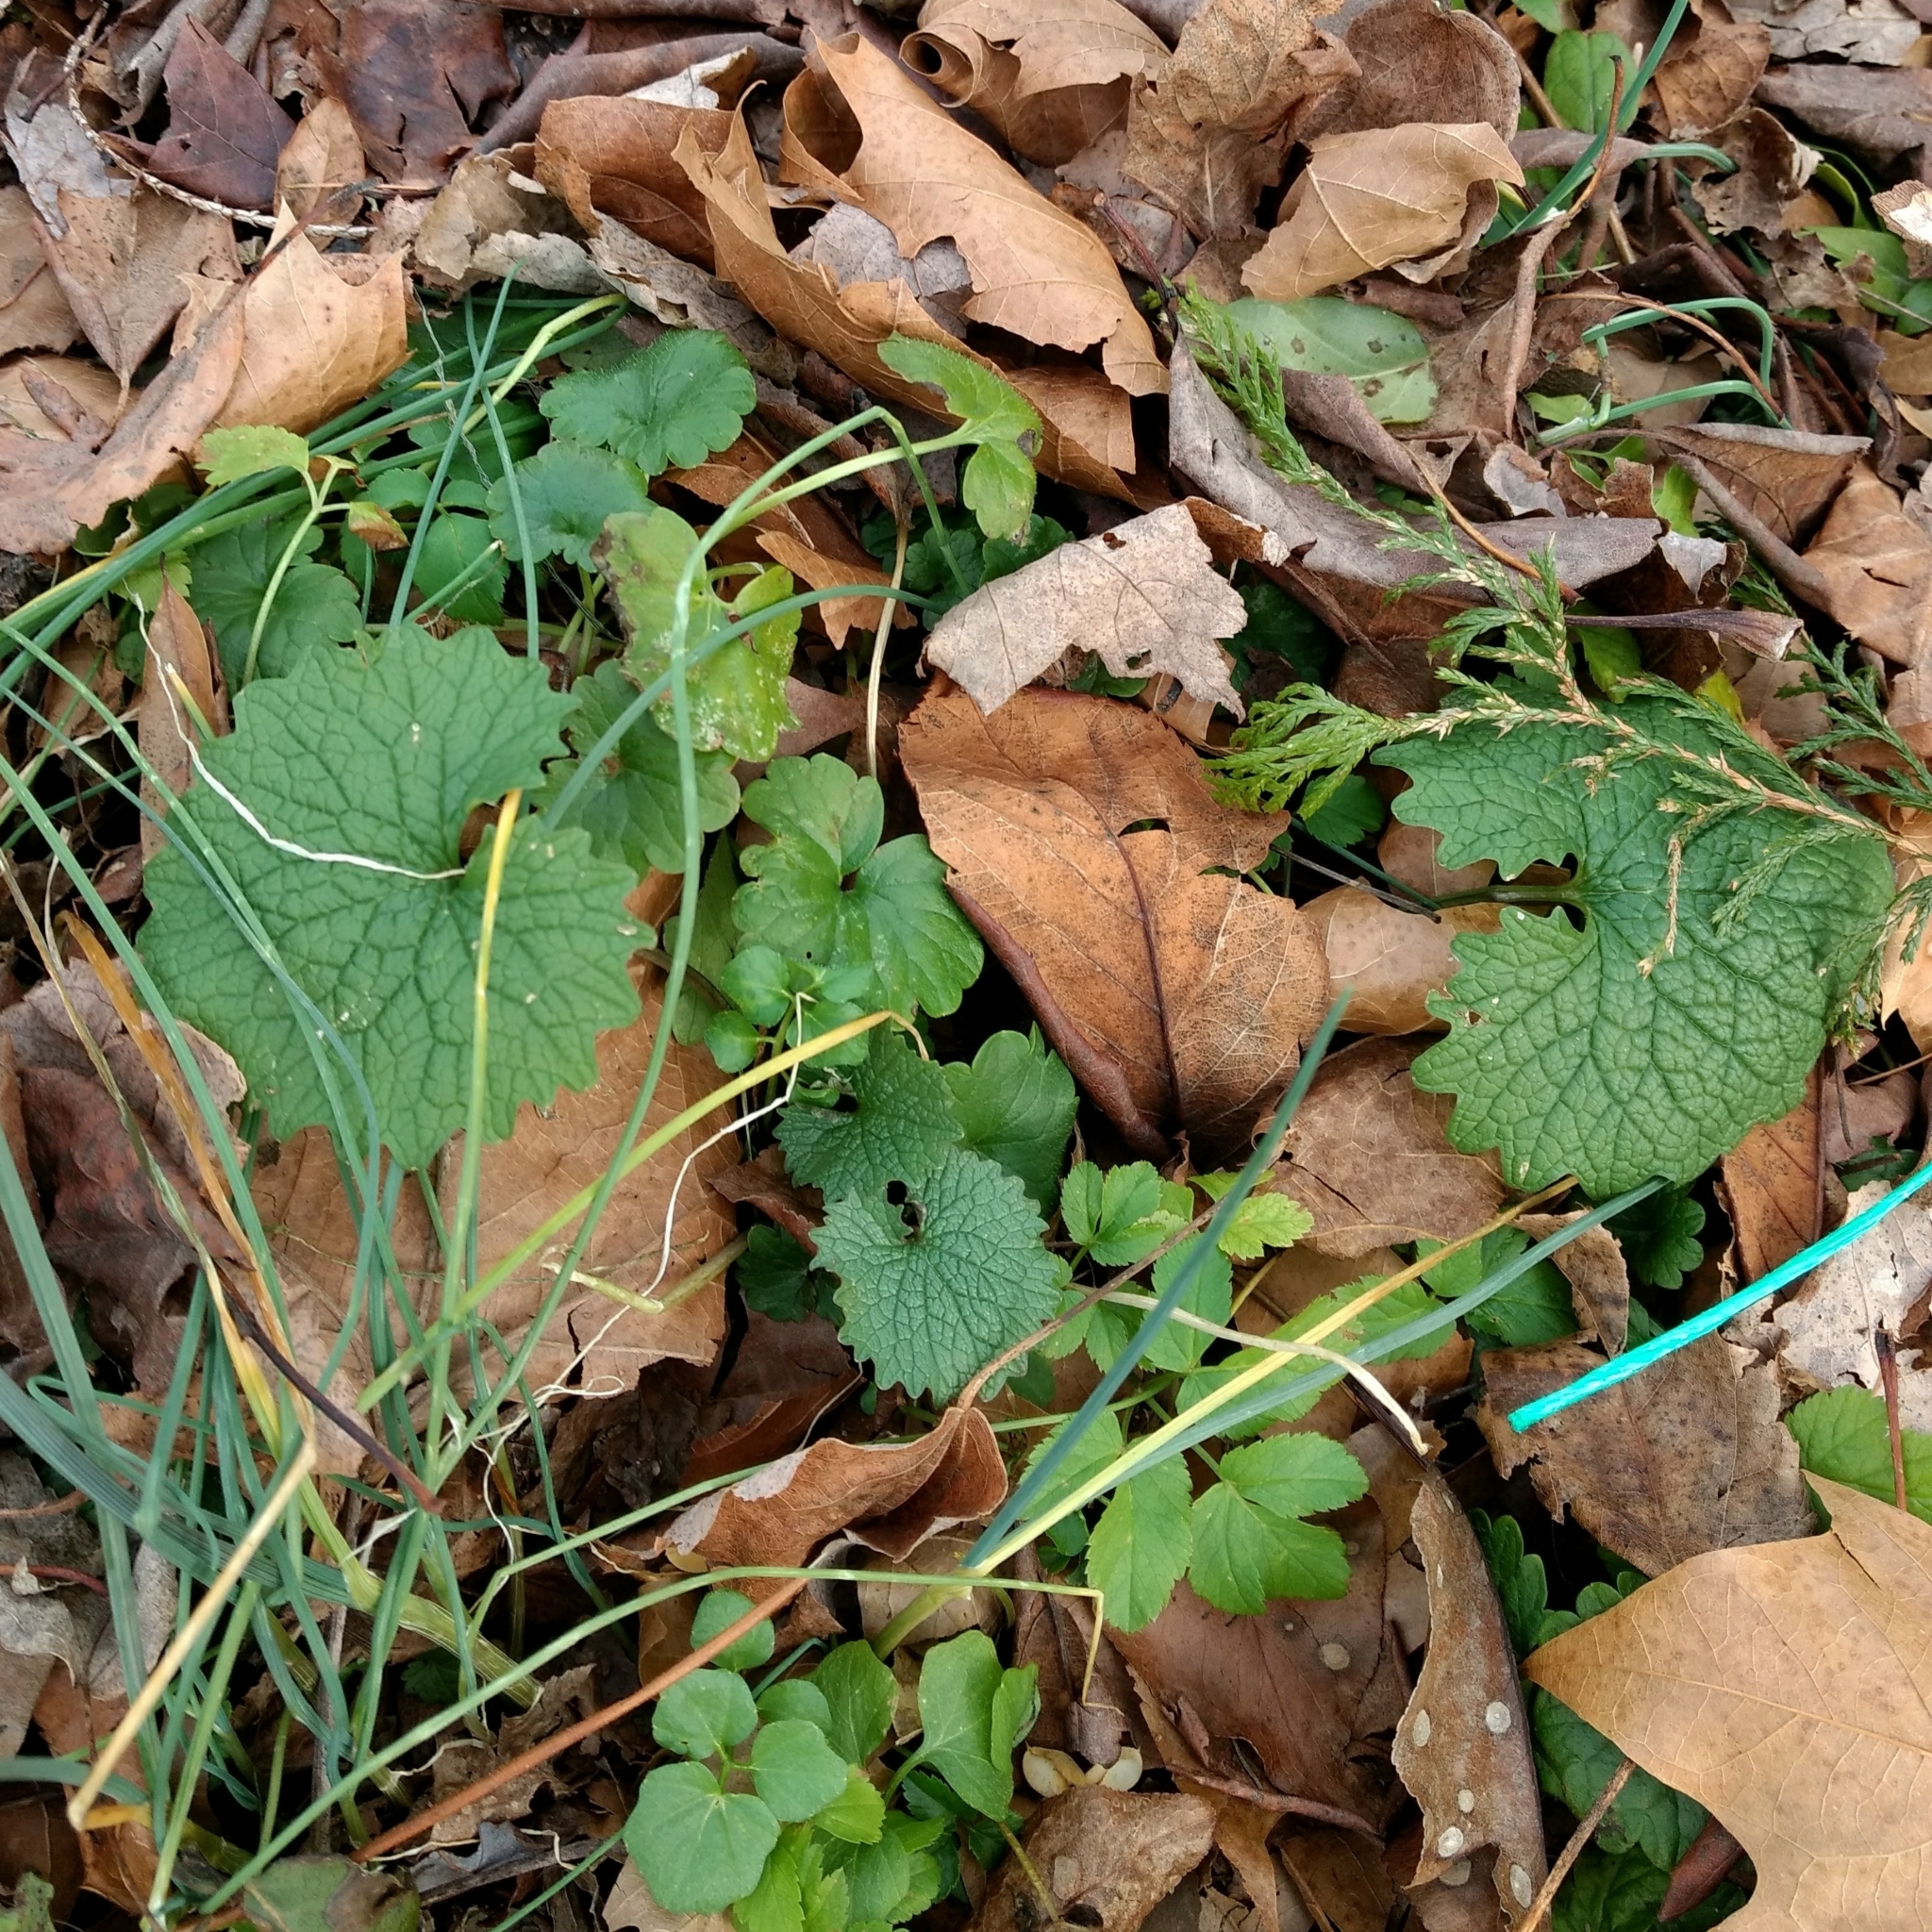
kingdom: Plantae
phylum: Tracheophyta
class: Magnoliopsida
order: Brassicales
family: Brassicaceae
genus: Alliaria
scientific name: Alliaria petiolata
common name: Garlic mustard
